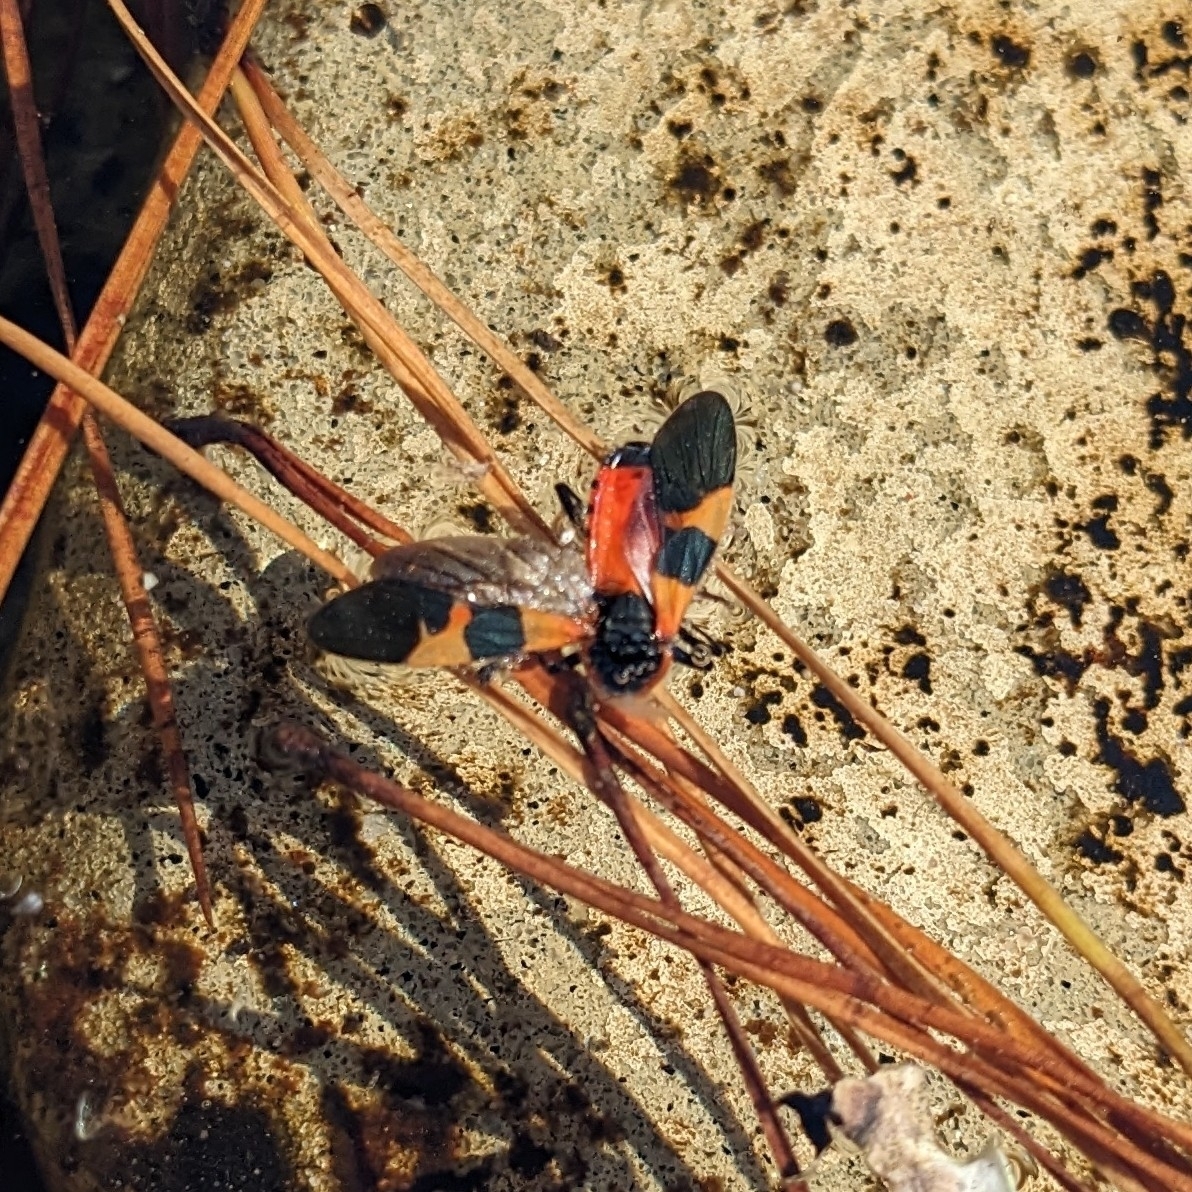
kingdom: Animalia
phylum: Arthropoda
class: Insecta
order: Hemiptera
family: Lygaeidae
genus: Oncopeltus
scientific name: Oncopeltus fasciatus
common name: Large milkweed bug
